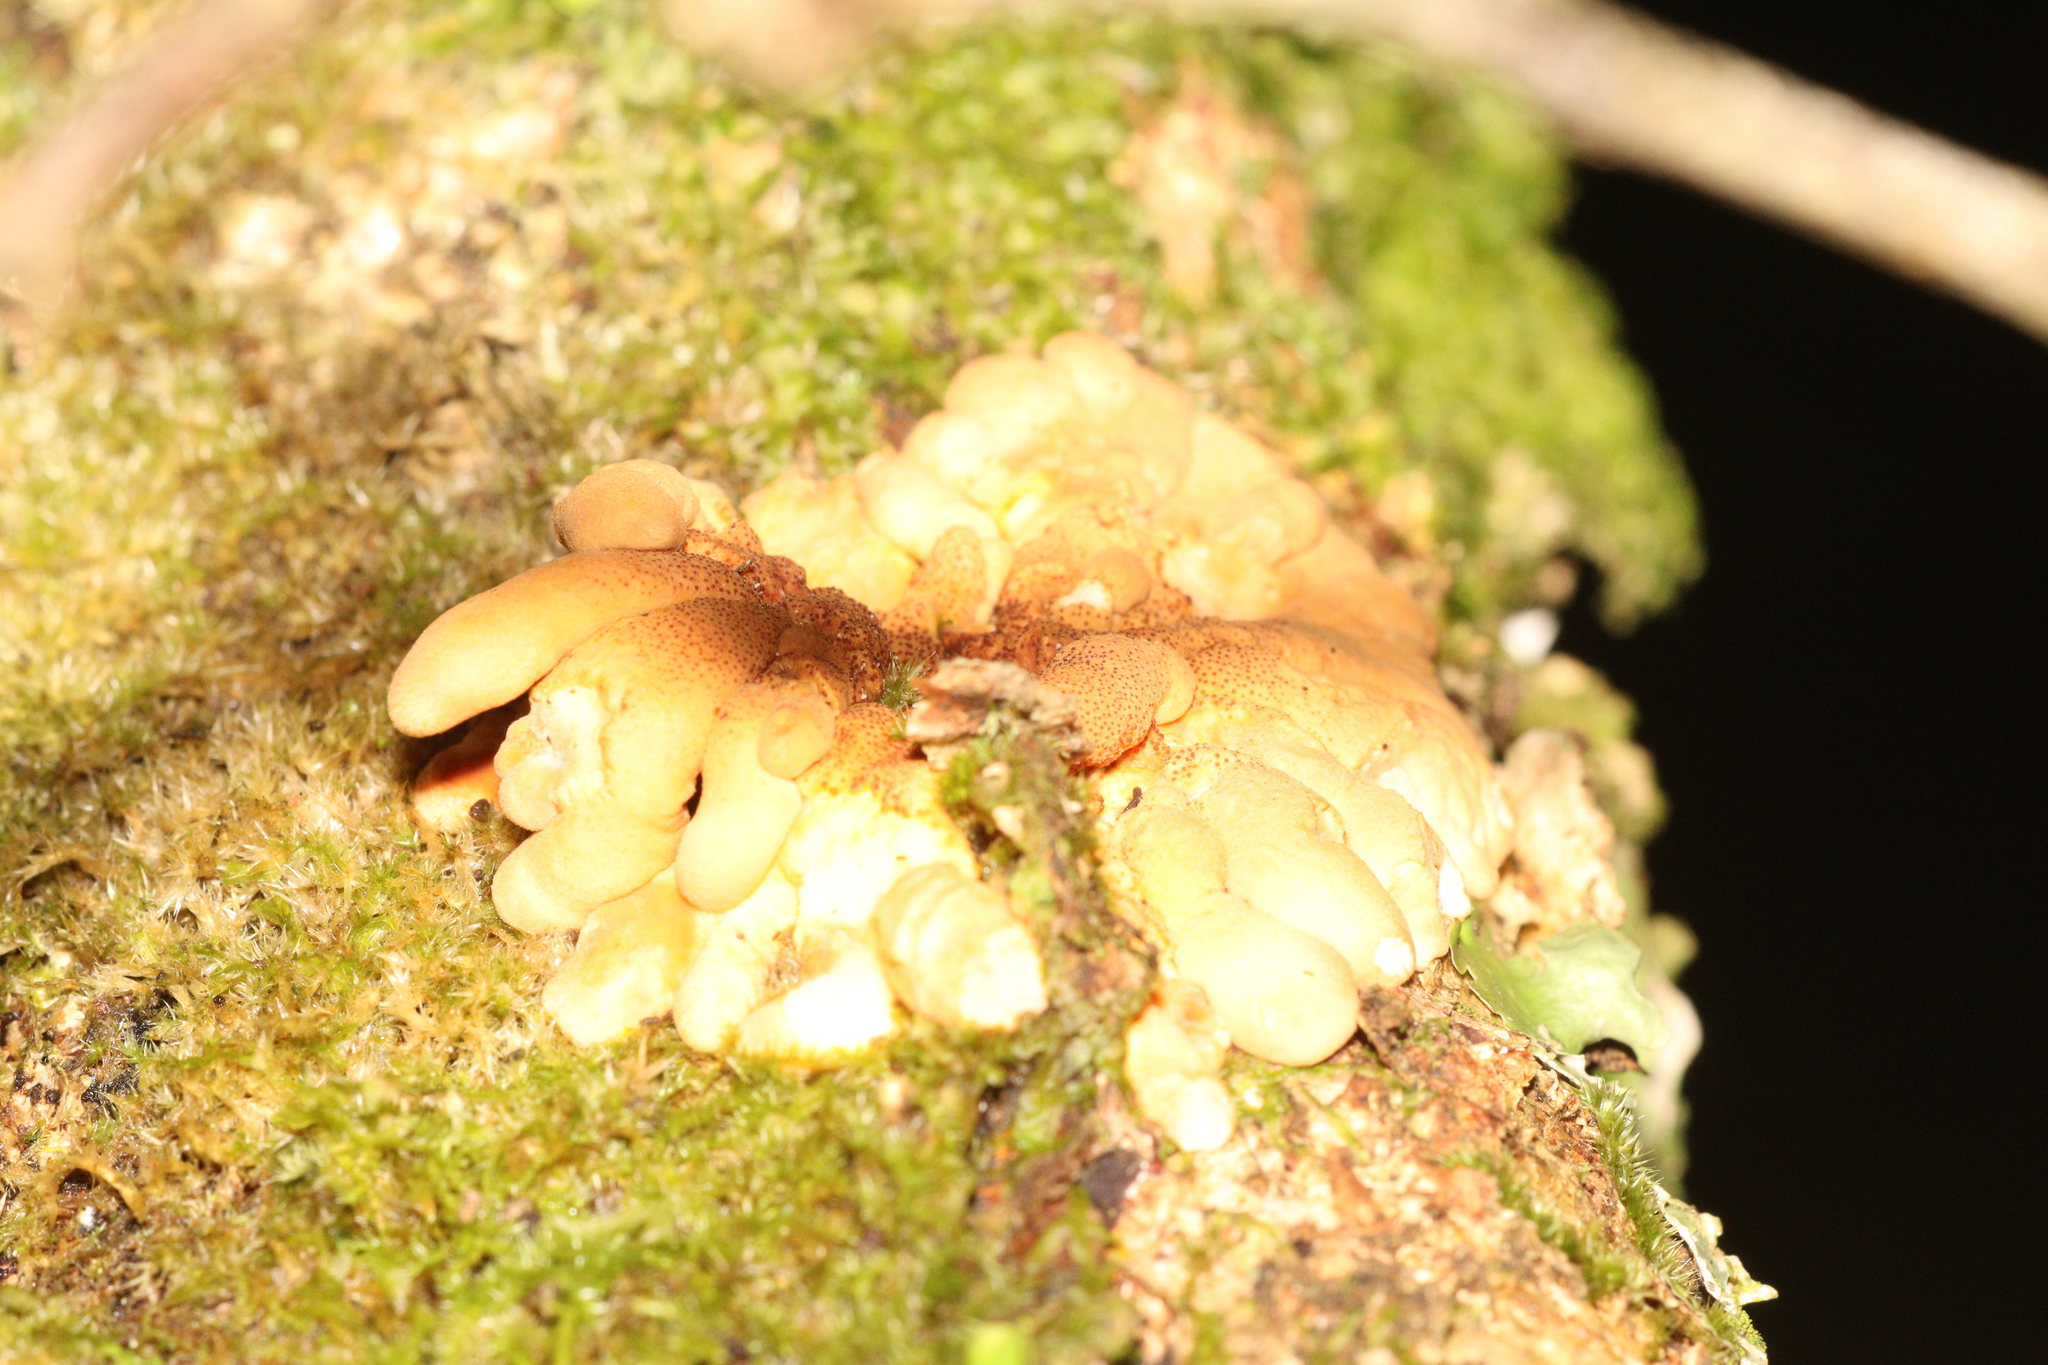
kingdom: Fungi
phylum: Ascomycota
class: Sordariomycetes
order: Hypocreales
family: Hypocreaceae
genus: Hypocreopsis
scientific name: Hypocreopsis rhododendri
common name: Hazel gloves
